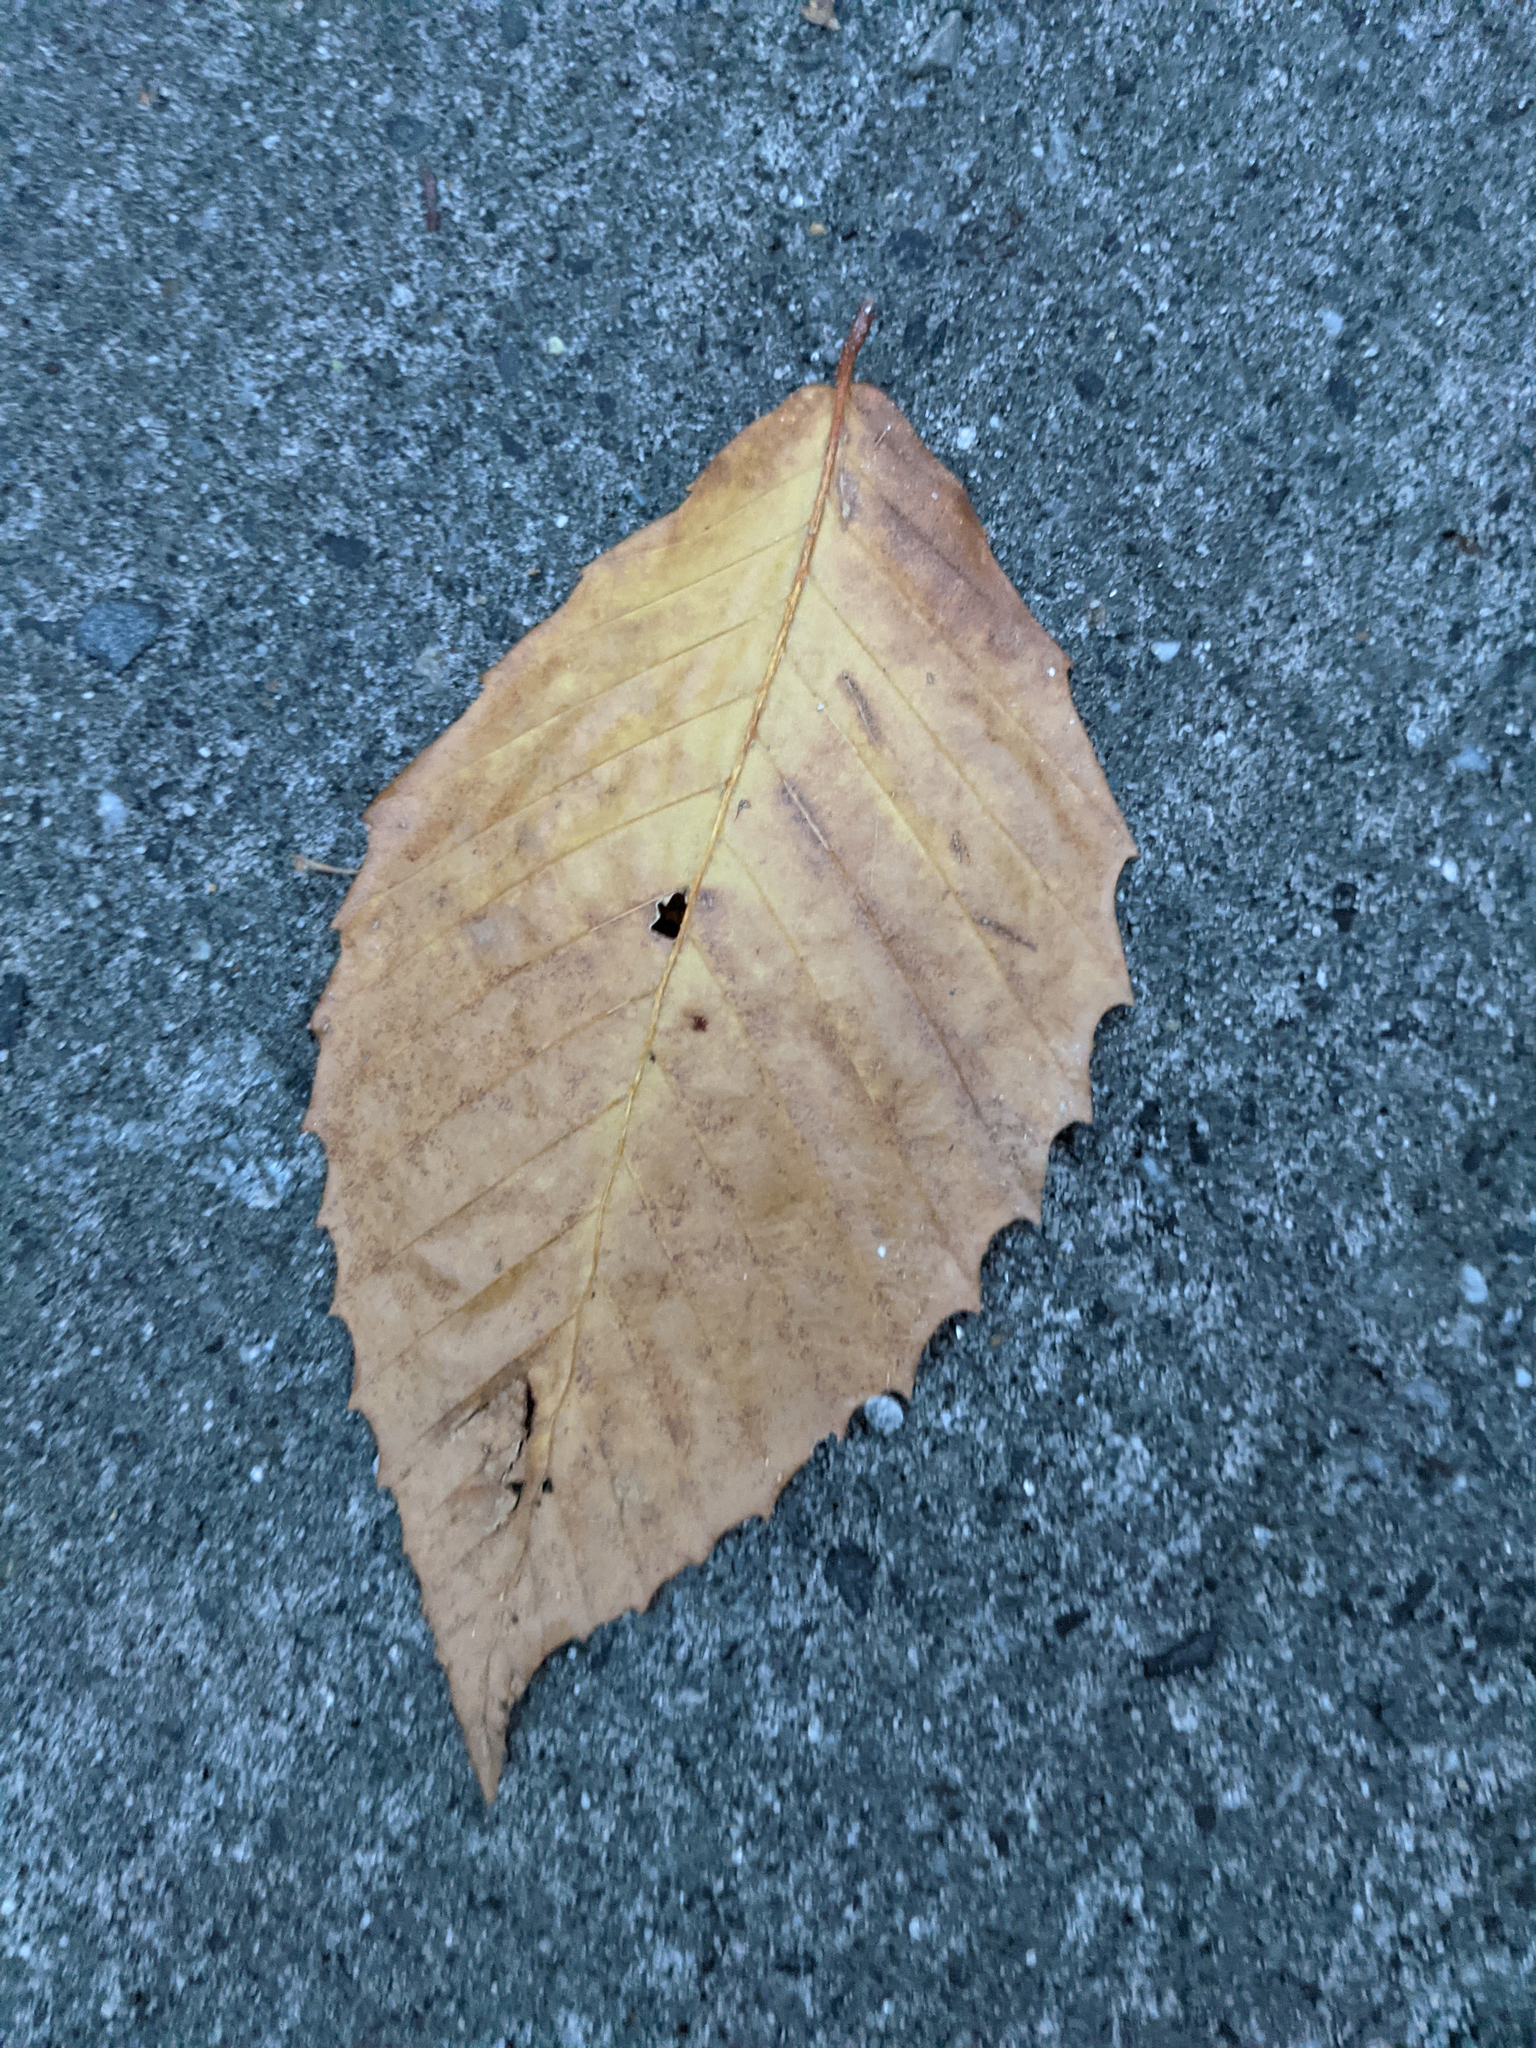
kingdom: Plantae
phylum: Tracheophyta
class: Magnoliopsida
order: Fagales
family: Fagaceae
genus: Fagus
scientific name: Fagus grandifolia
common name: American beech
